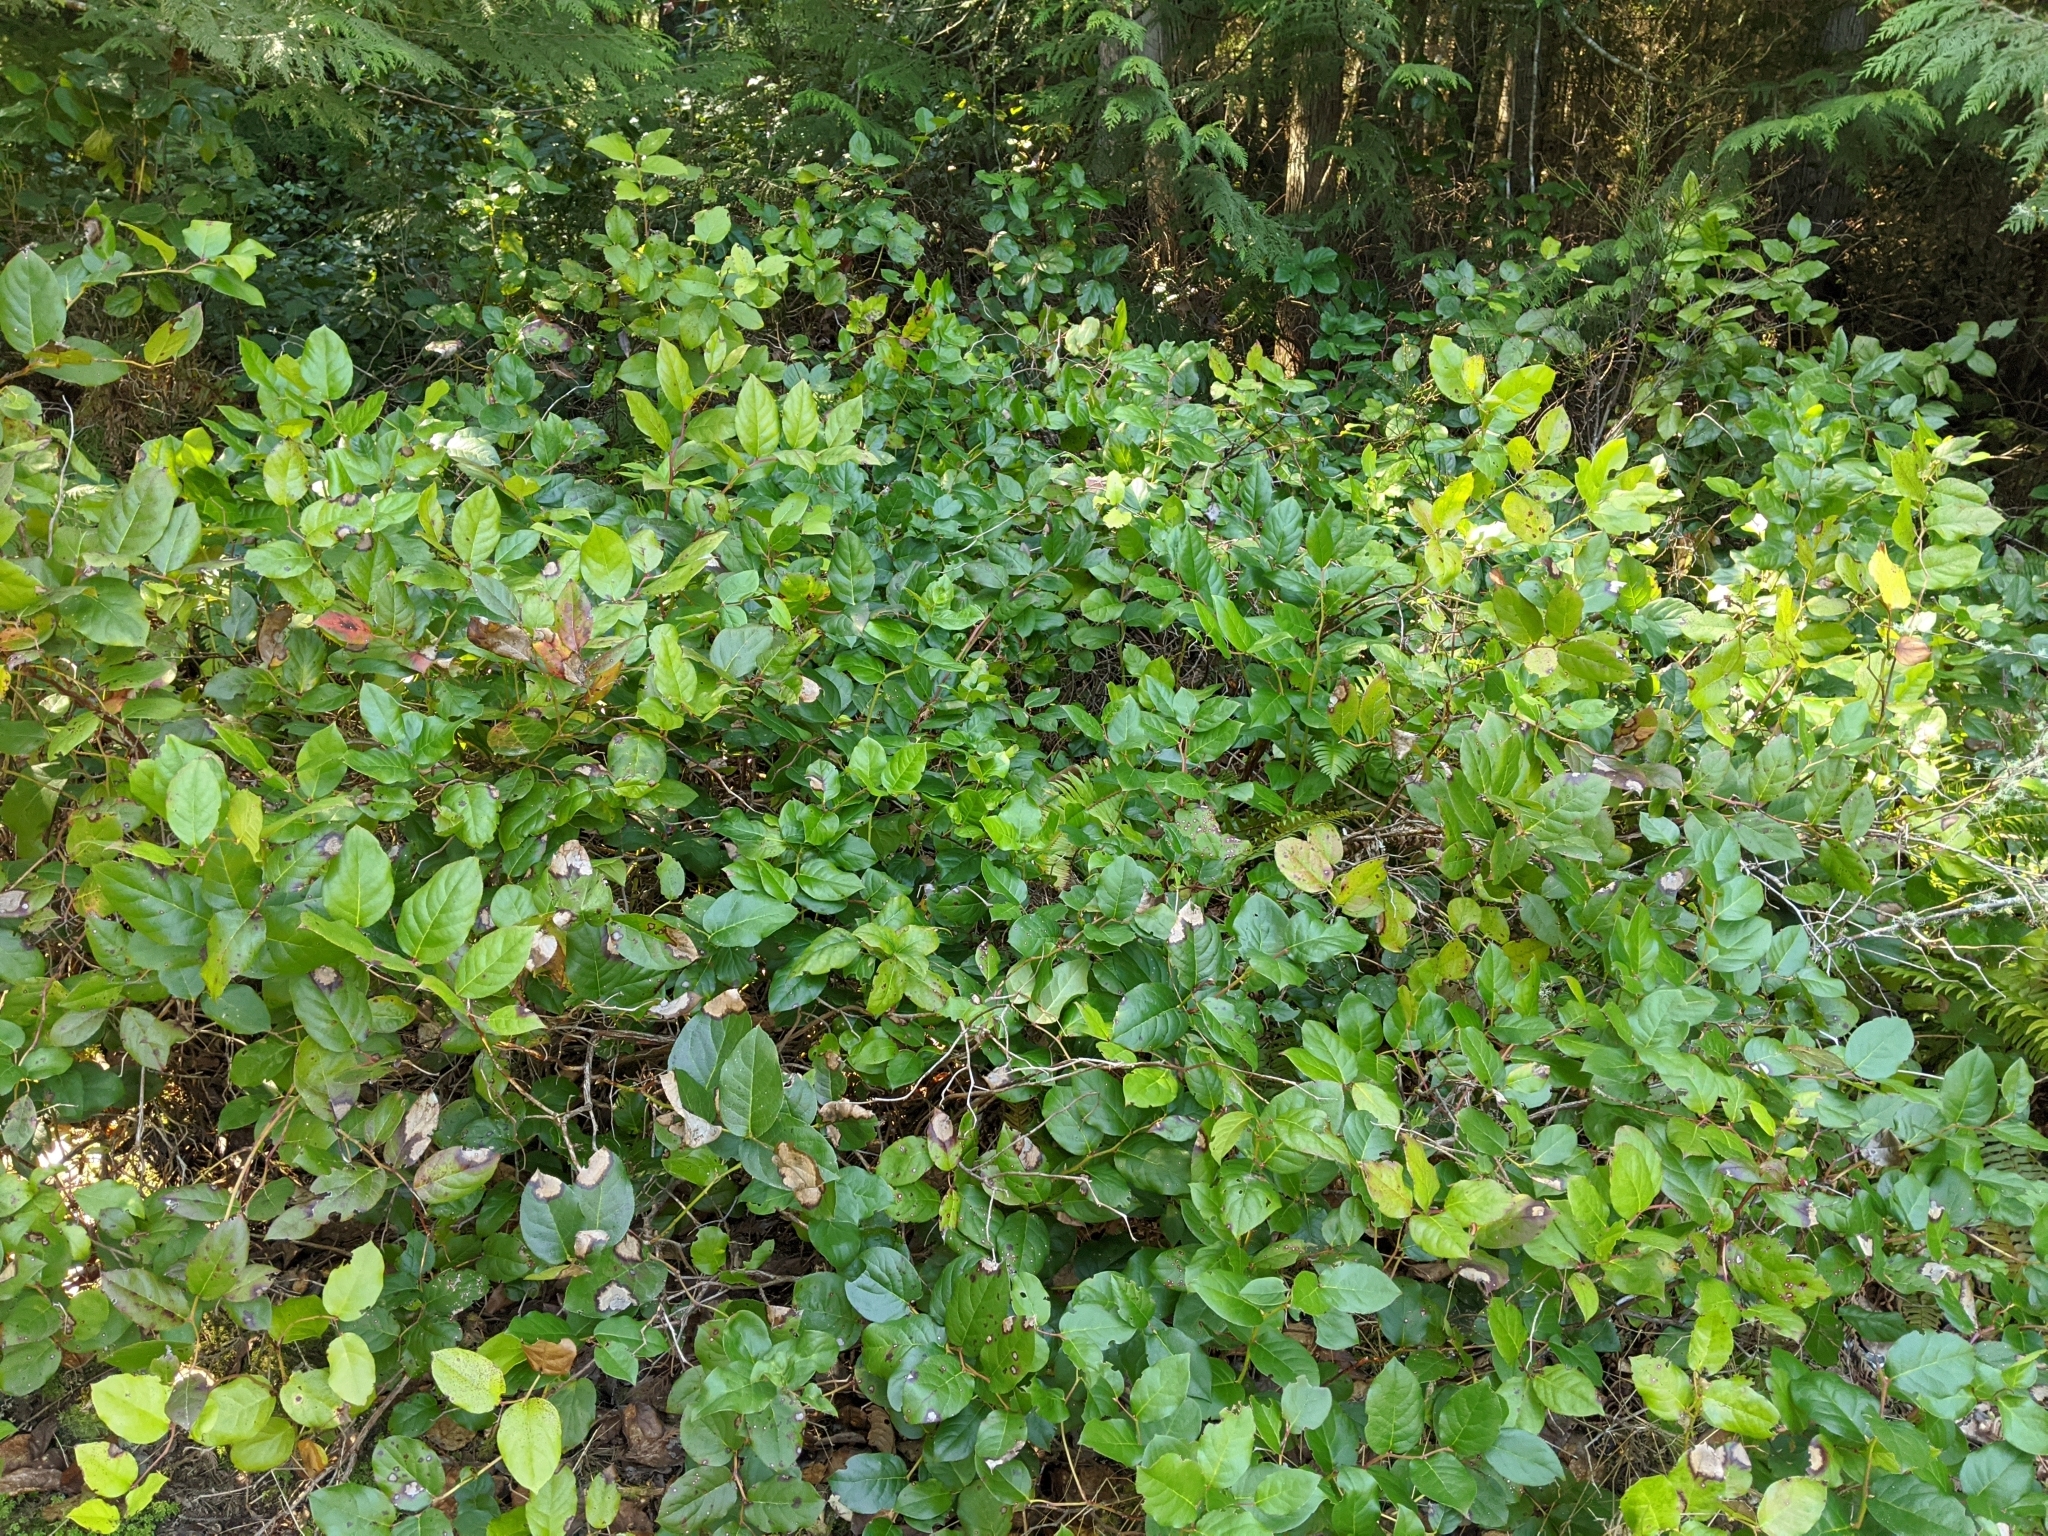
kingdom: Plantae
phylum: Tracheophyta
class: Magnoliopsida
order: Ericales
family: Ericaceae
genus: Gaultheria
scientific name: Gaultheria shallon
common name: Shallon
